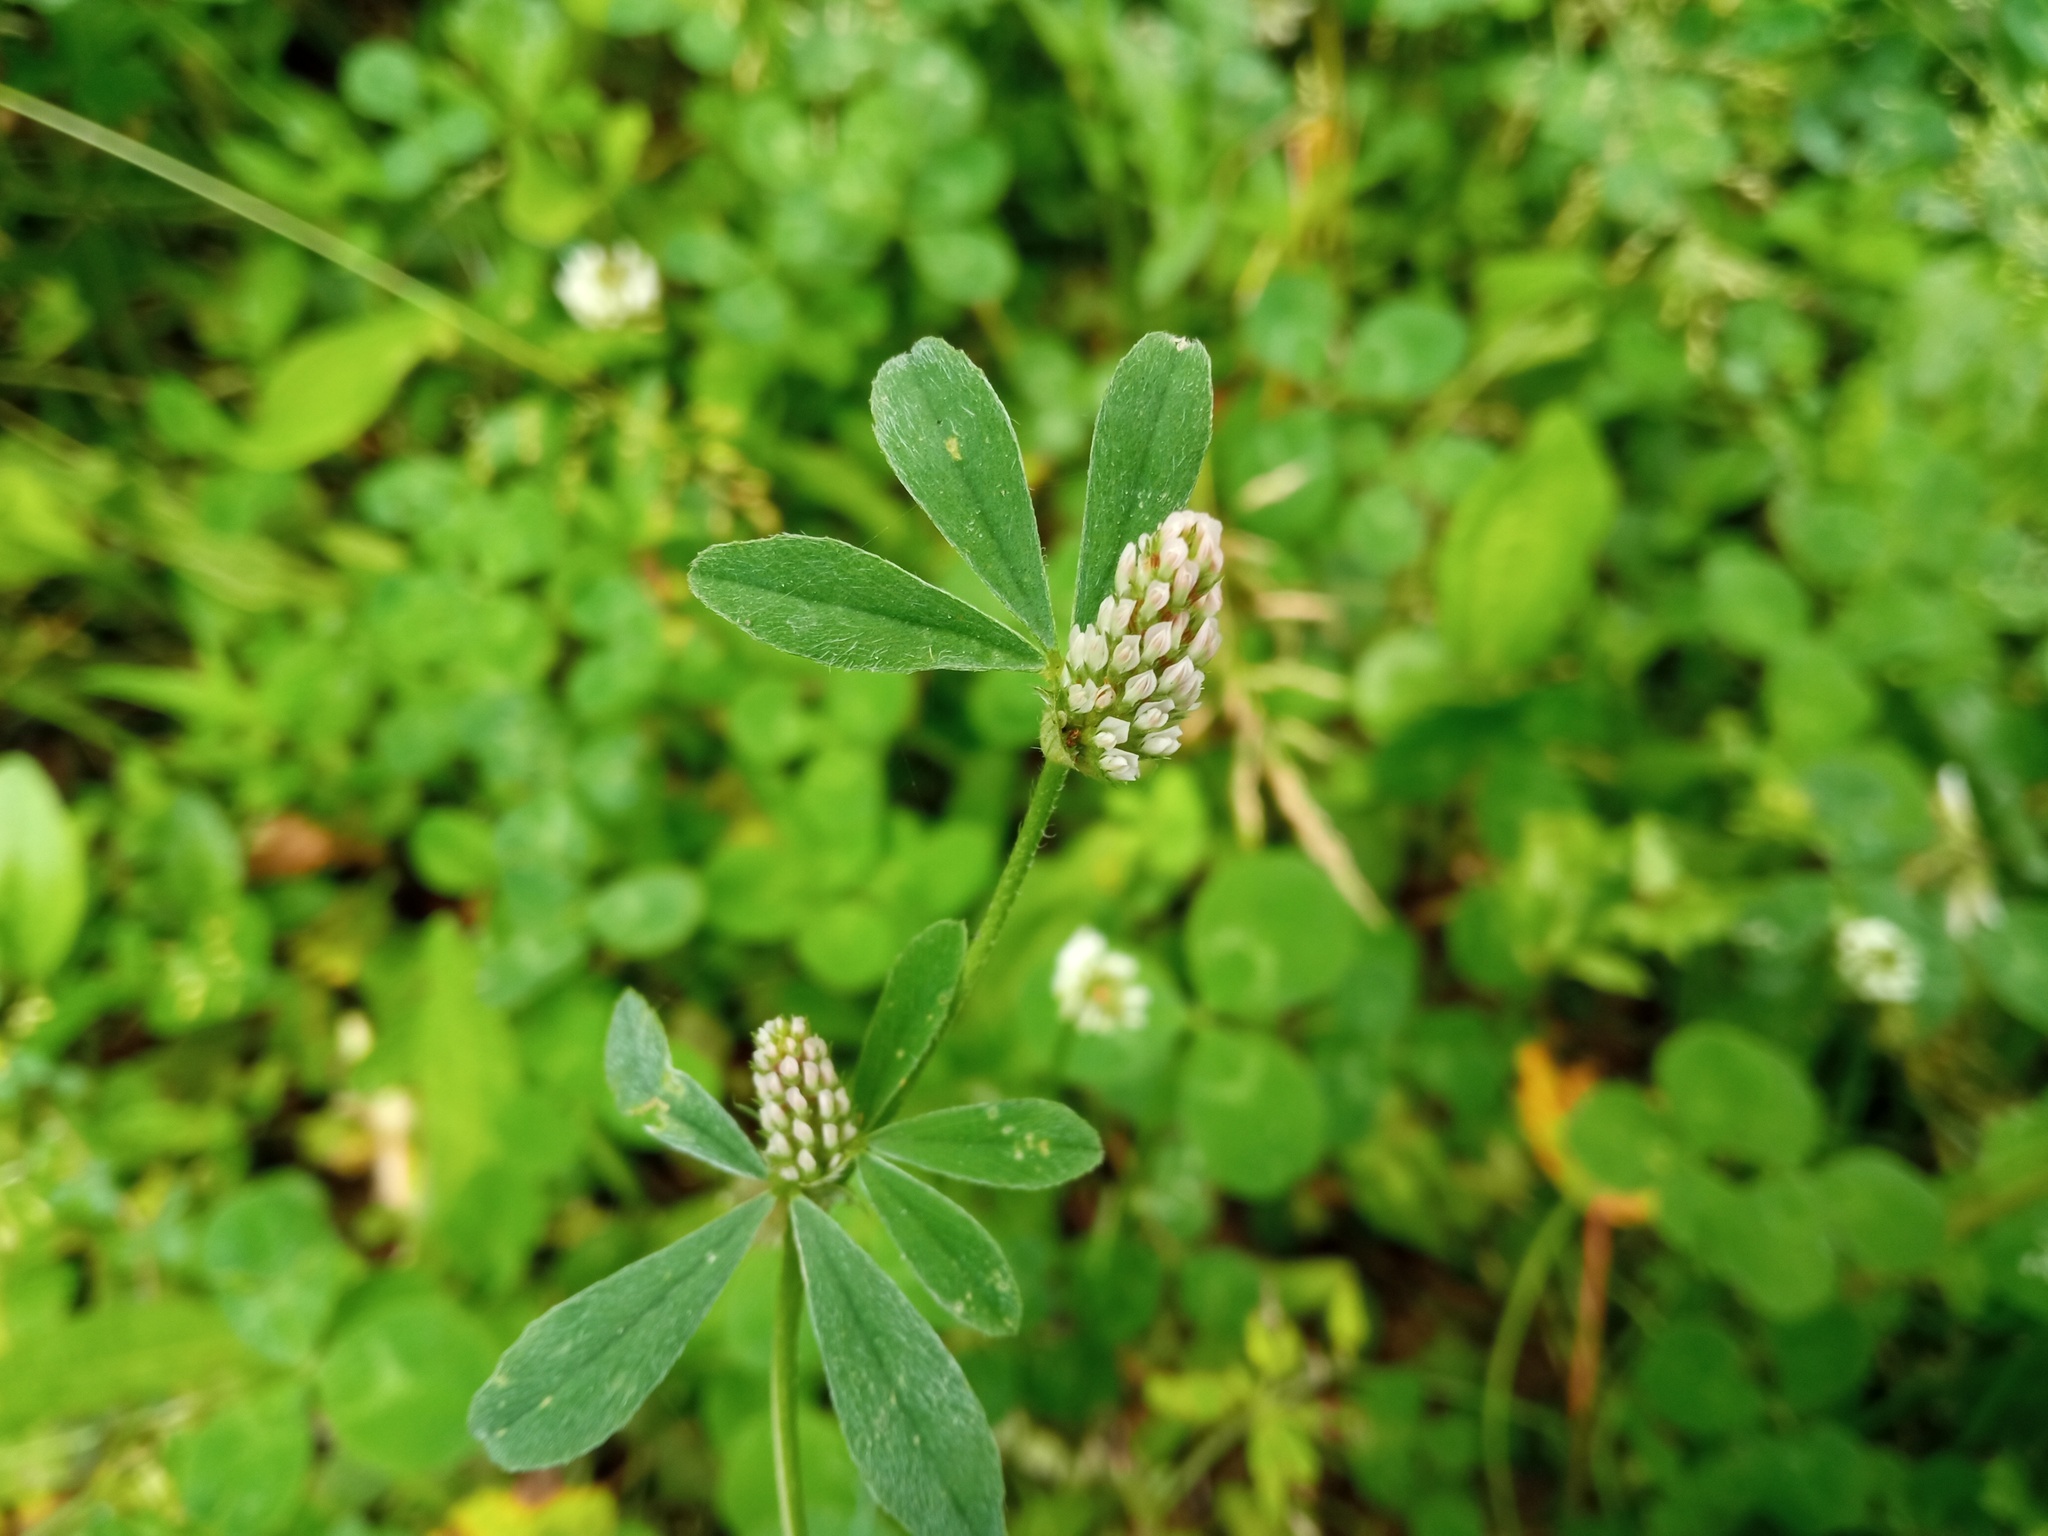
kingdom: Plantae
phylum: Tracheophyta
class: Magnoliopsida
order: Fabales
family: Fabaceae
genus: Trifolium
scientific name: Trifolium striatum
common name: Knotted clover
